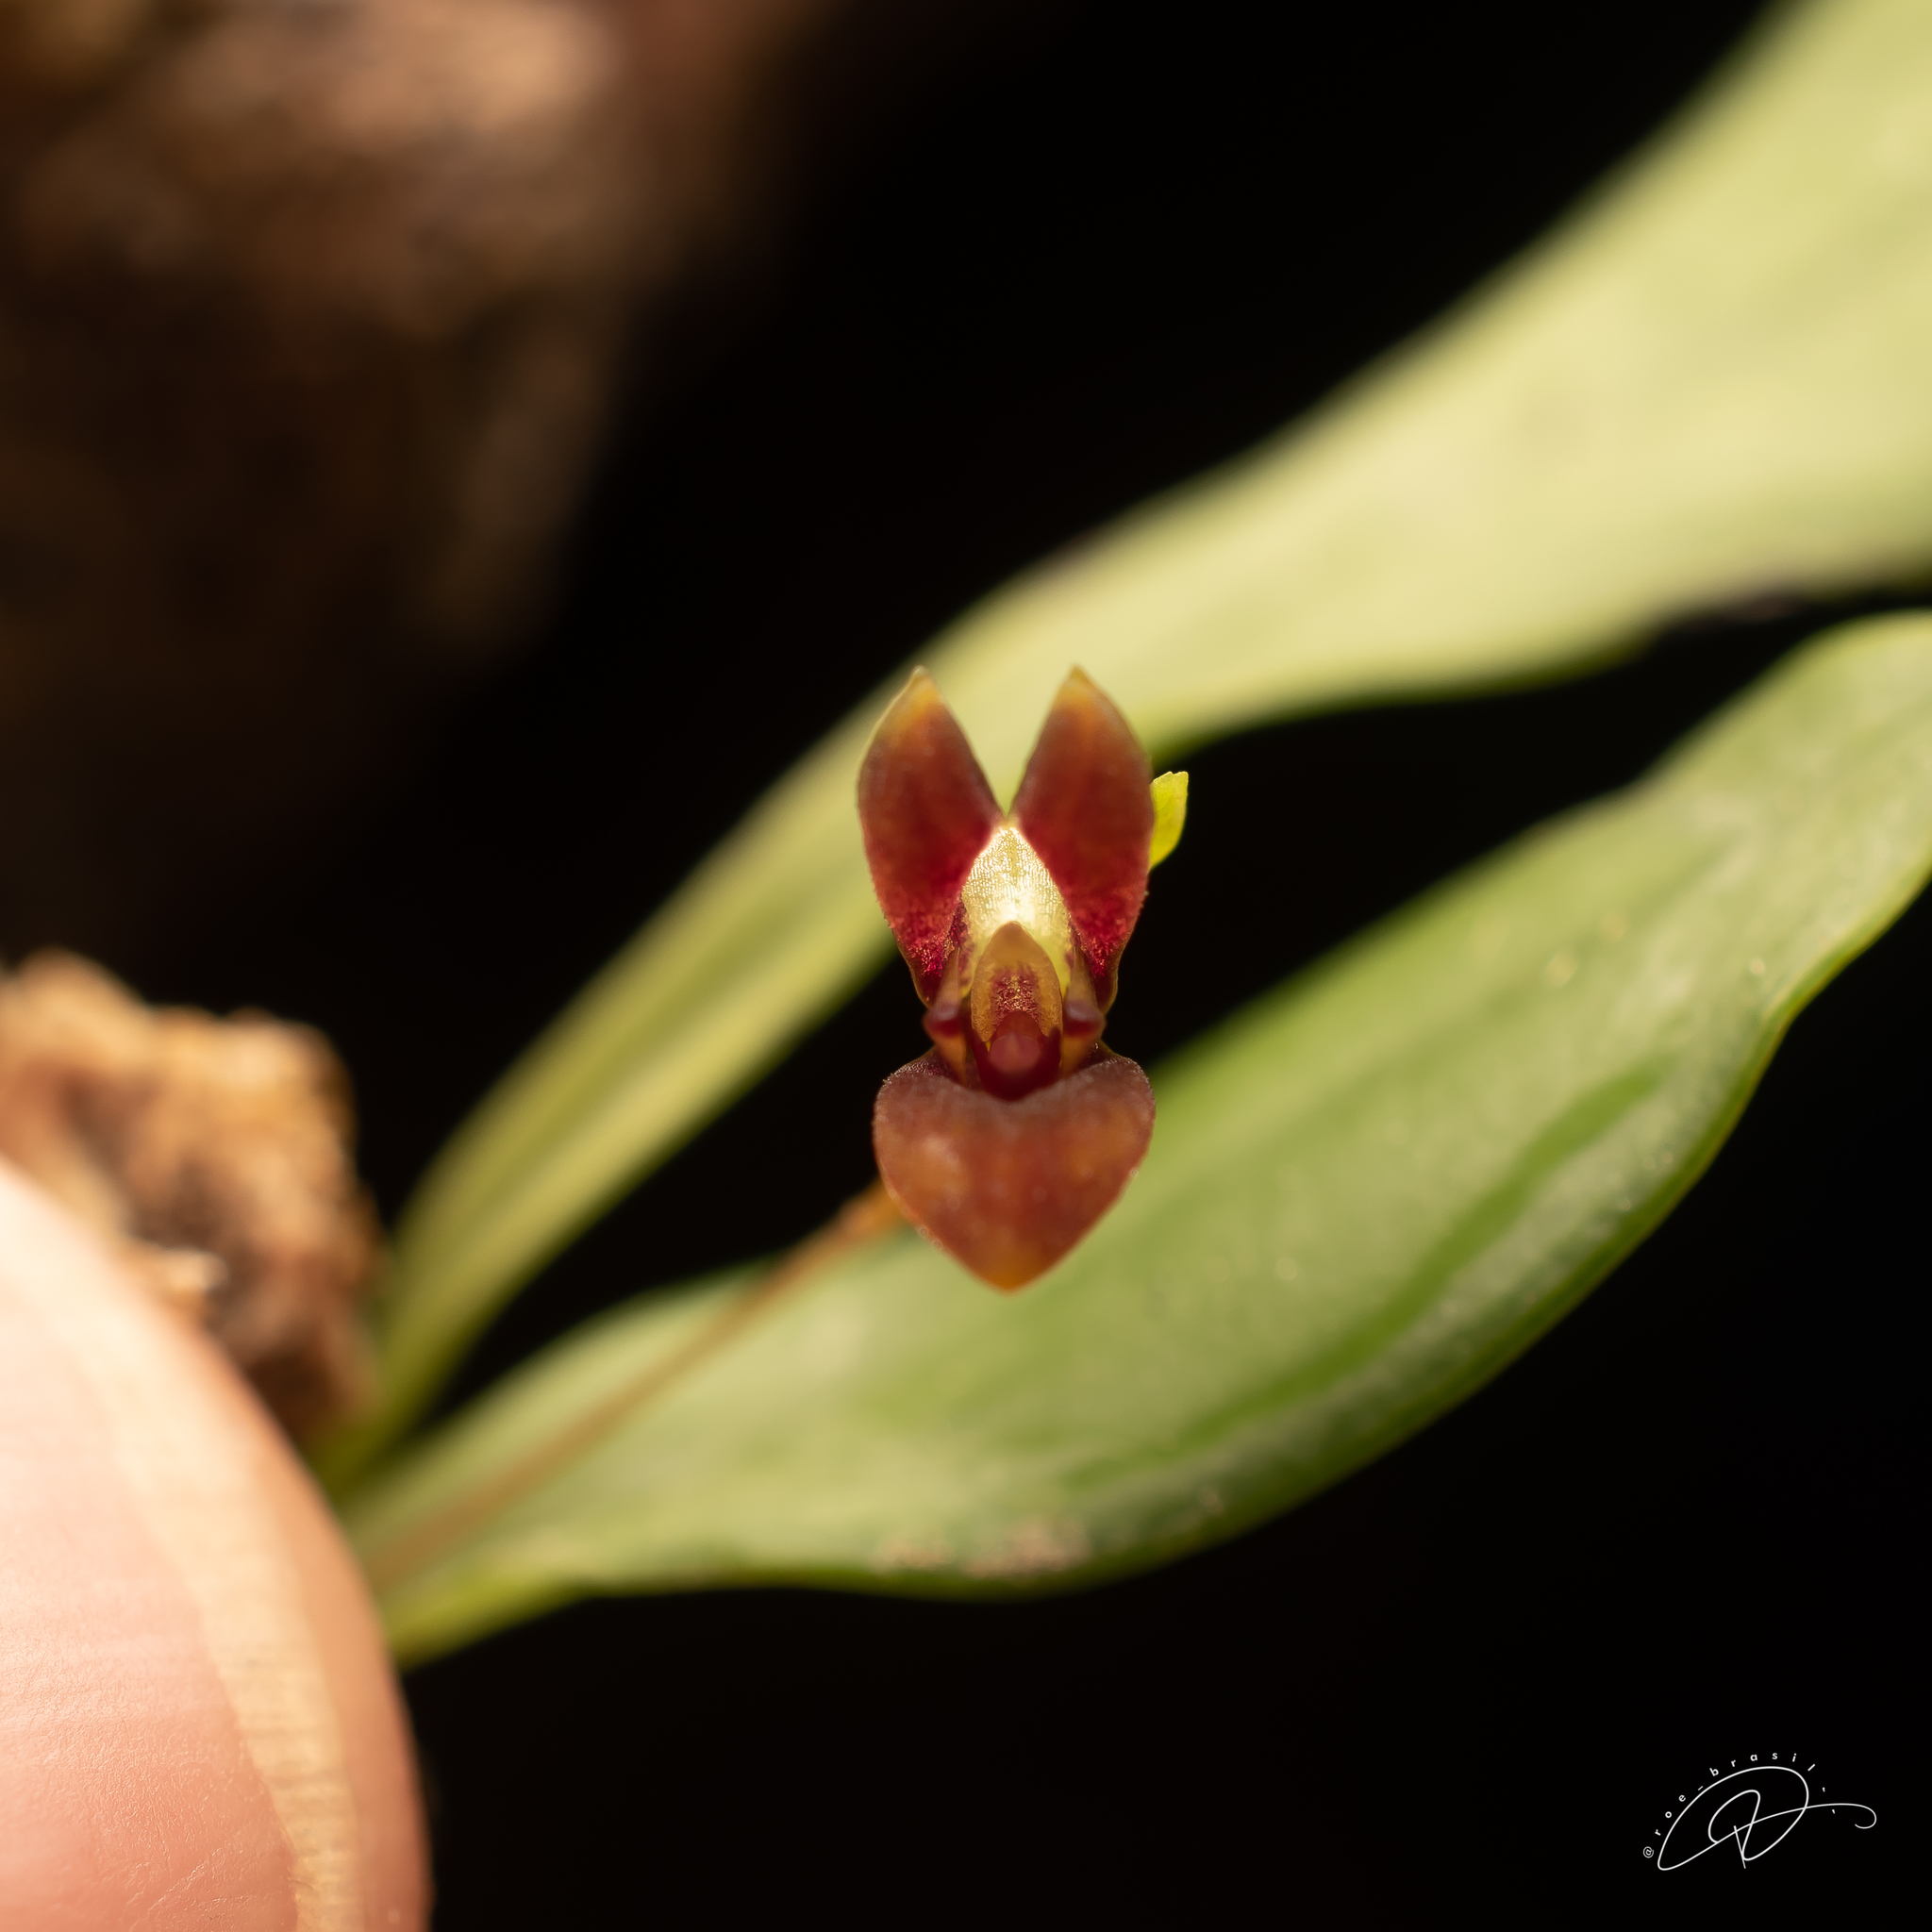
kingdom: Plantae
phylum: Tracheophyta
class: Liliopsida
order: Asparagales
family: Orchidaceae
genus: Pabstiella
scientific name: Pabstiella fusca
